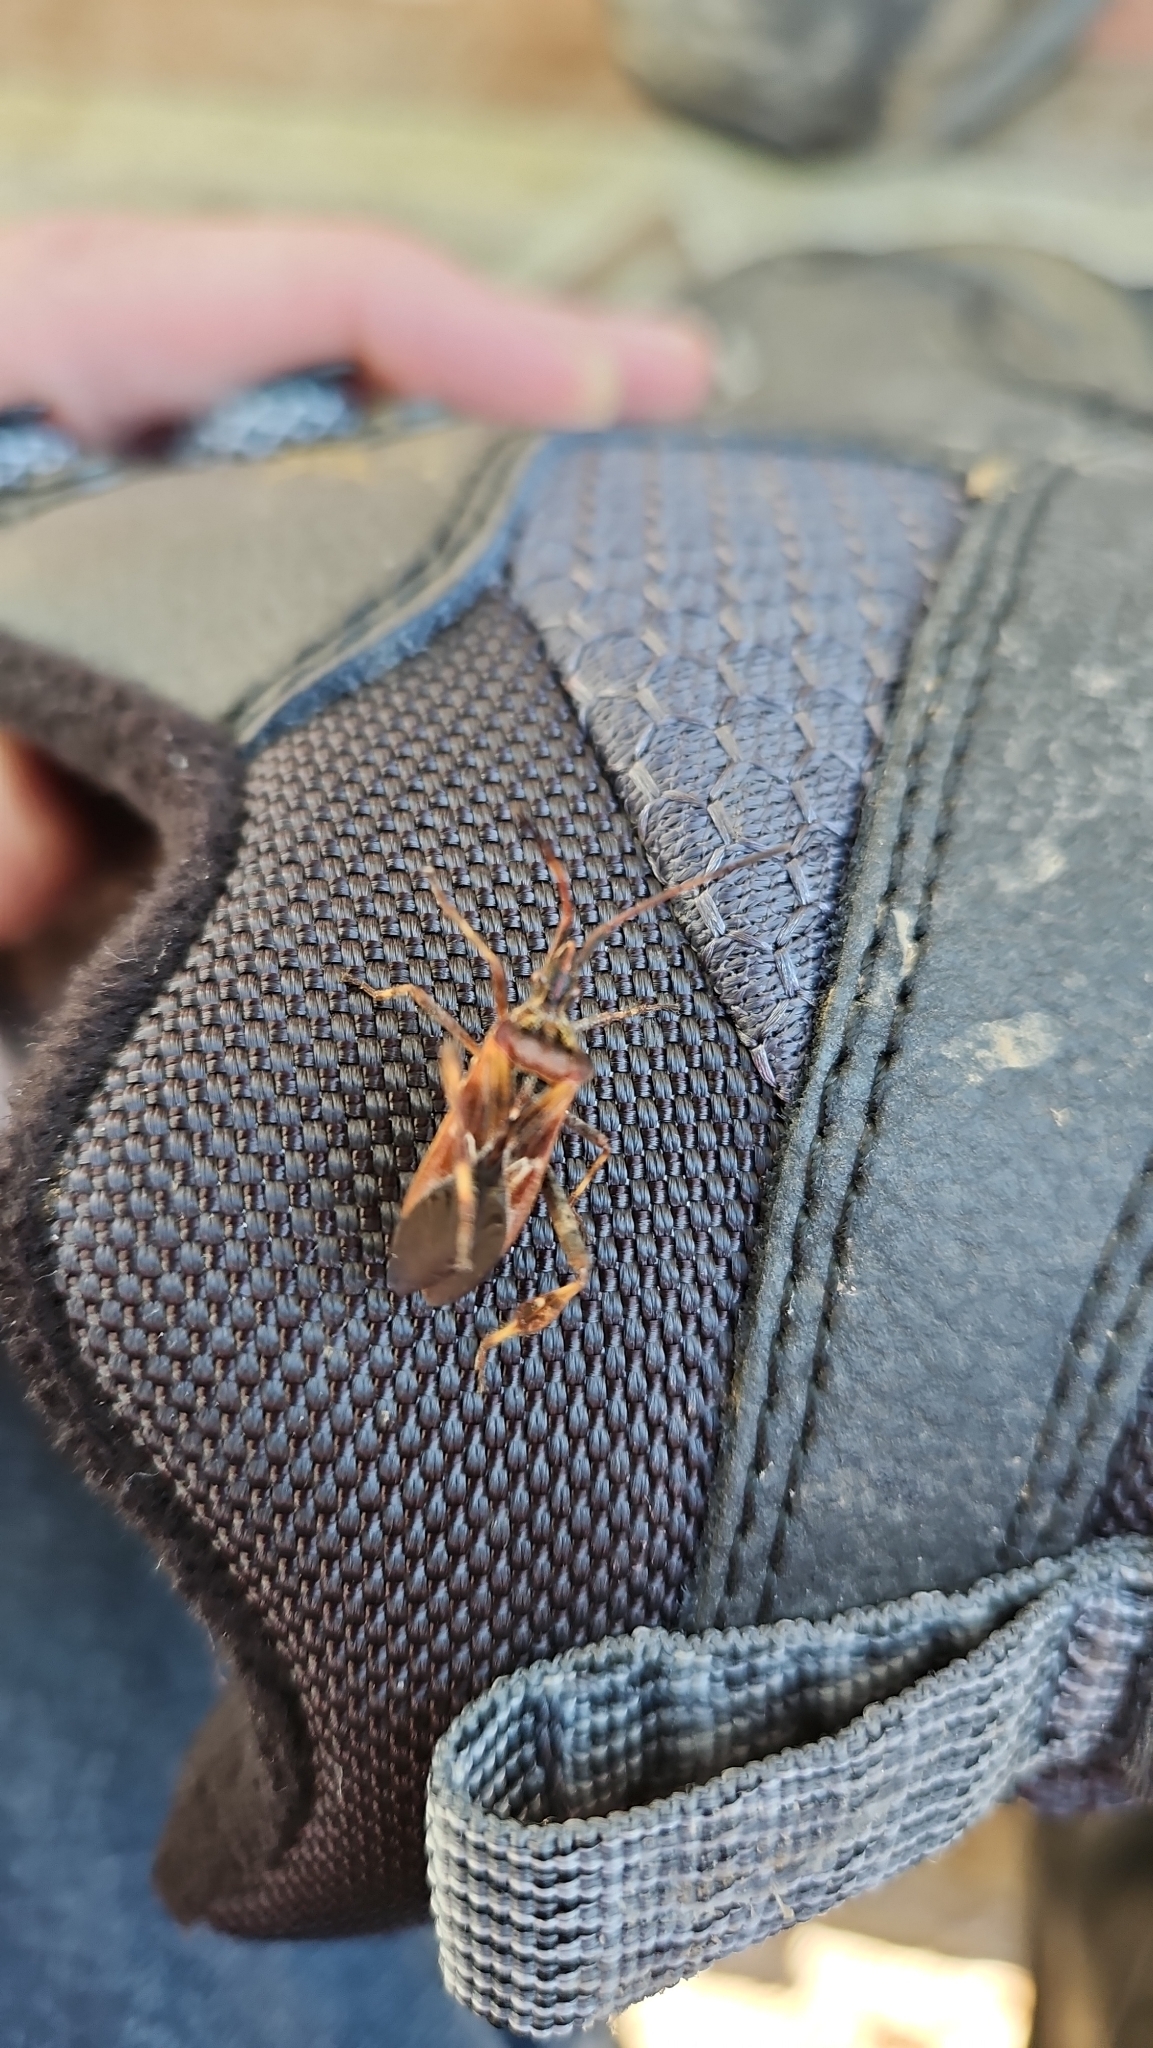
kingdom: Animalia
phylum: Arthropoda
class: Insecta
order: Hemiptera
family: Coreidae
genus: Leptoglossus
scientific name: Leptoglossus occidentalis
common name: Western conifer-seed bug
